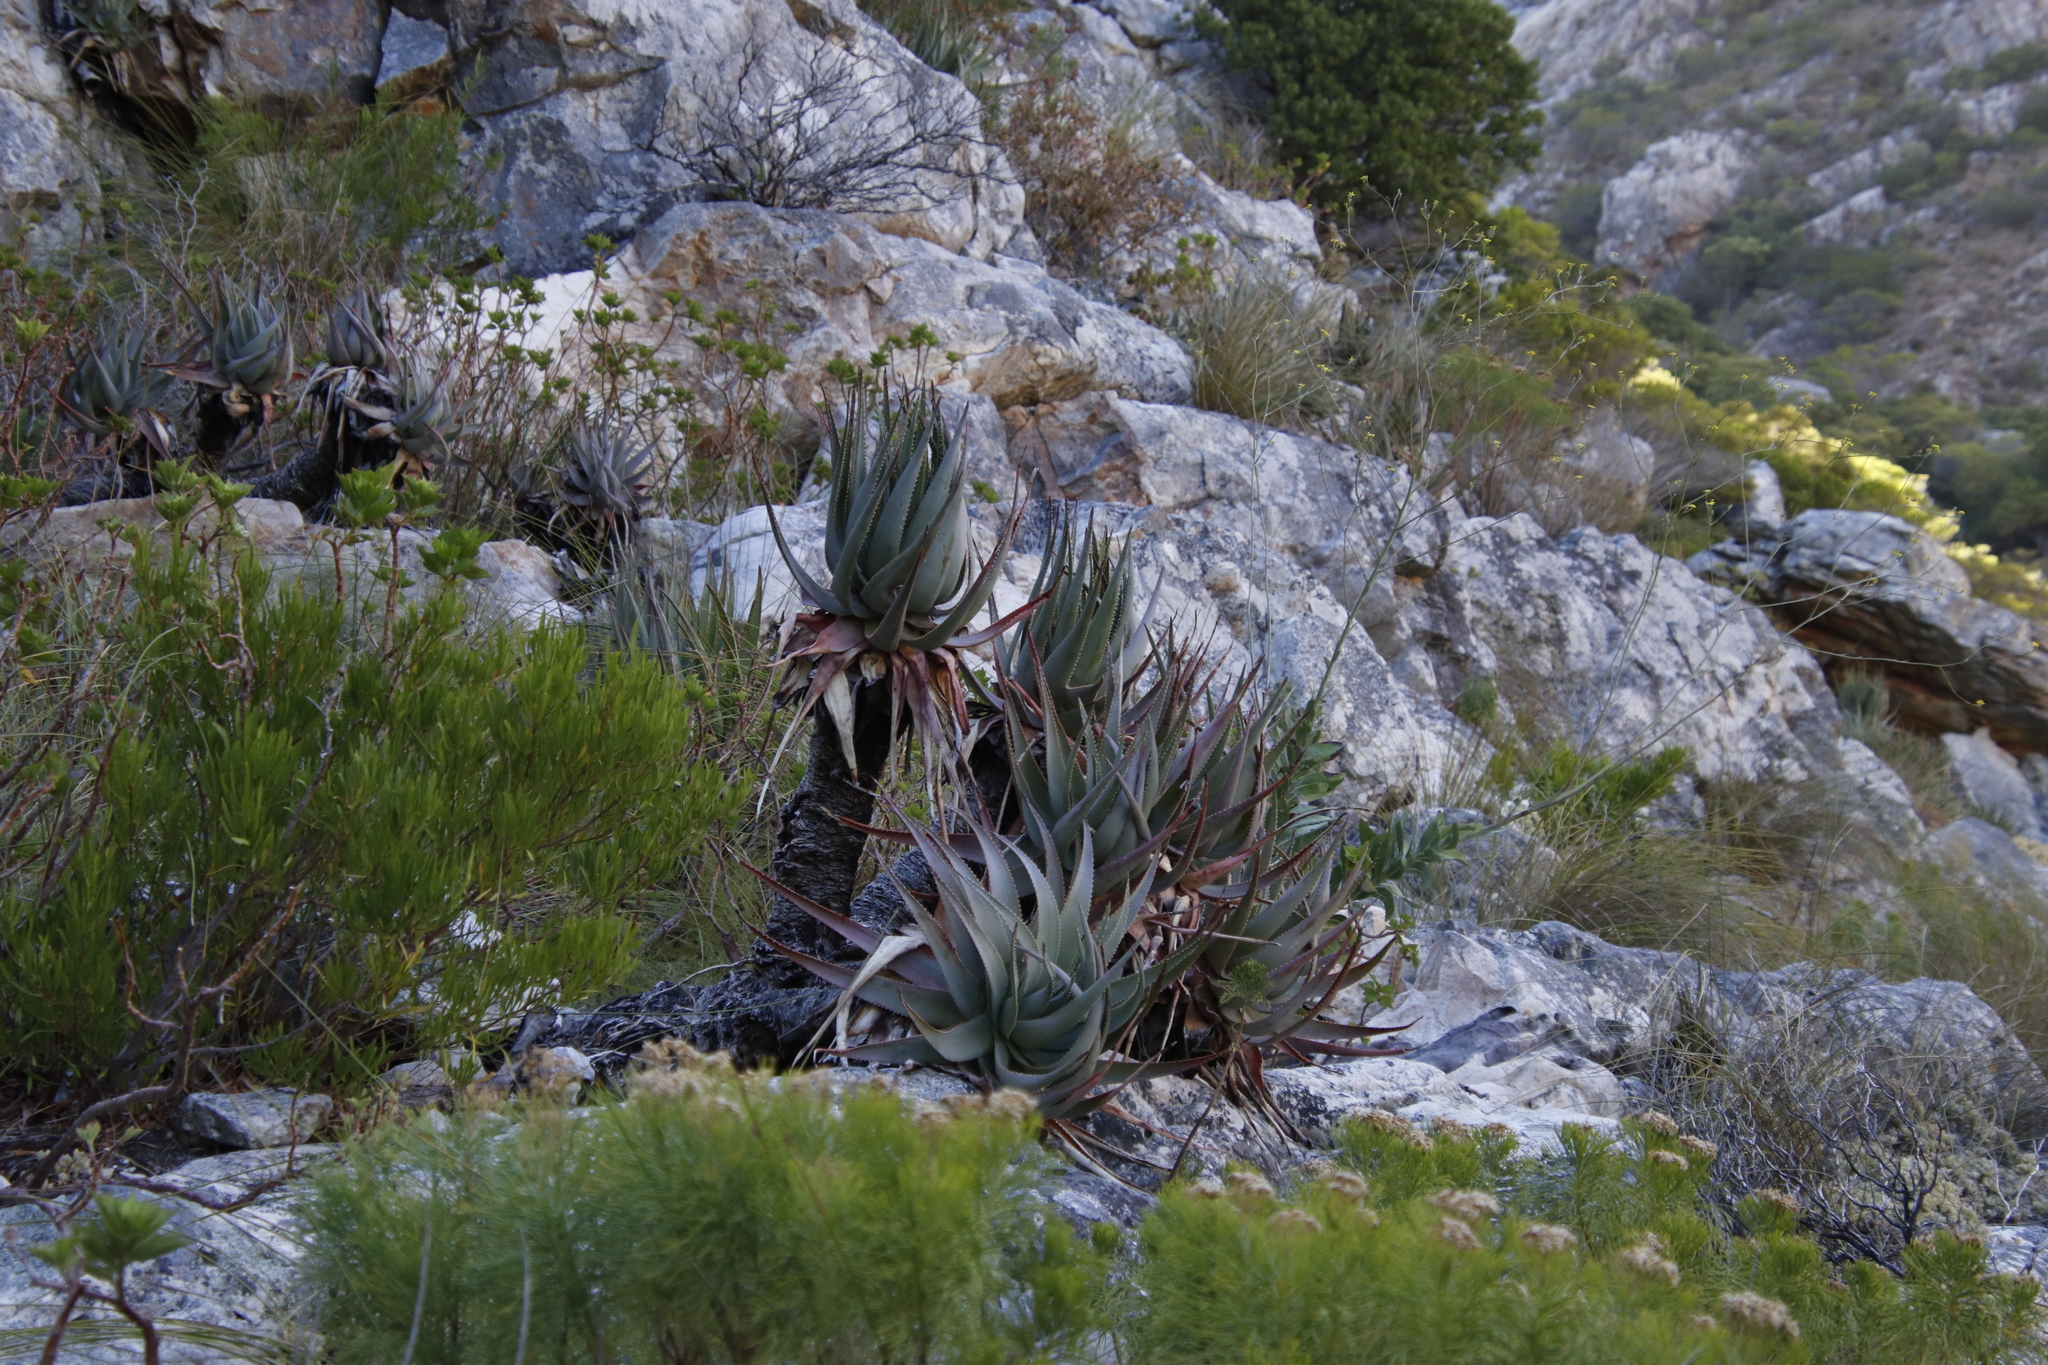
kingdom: Plantae
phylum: Tracheophyta
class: Liliopsida
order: Asparagales
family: Asphodelaceae
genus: Aloe
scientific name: Aloe succotrina
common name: Bombay aloe
